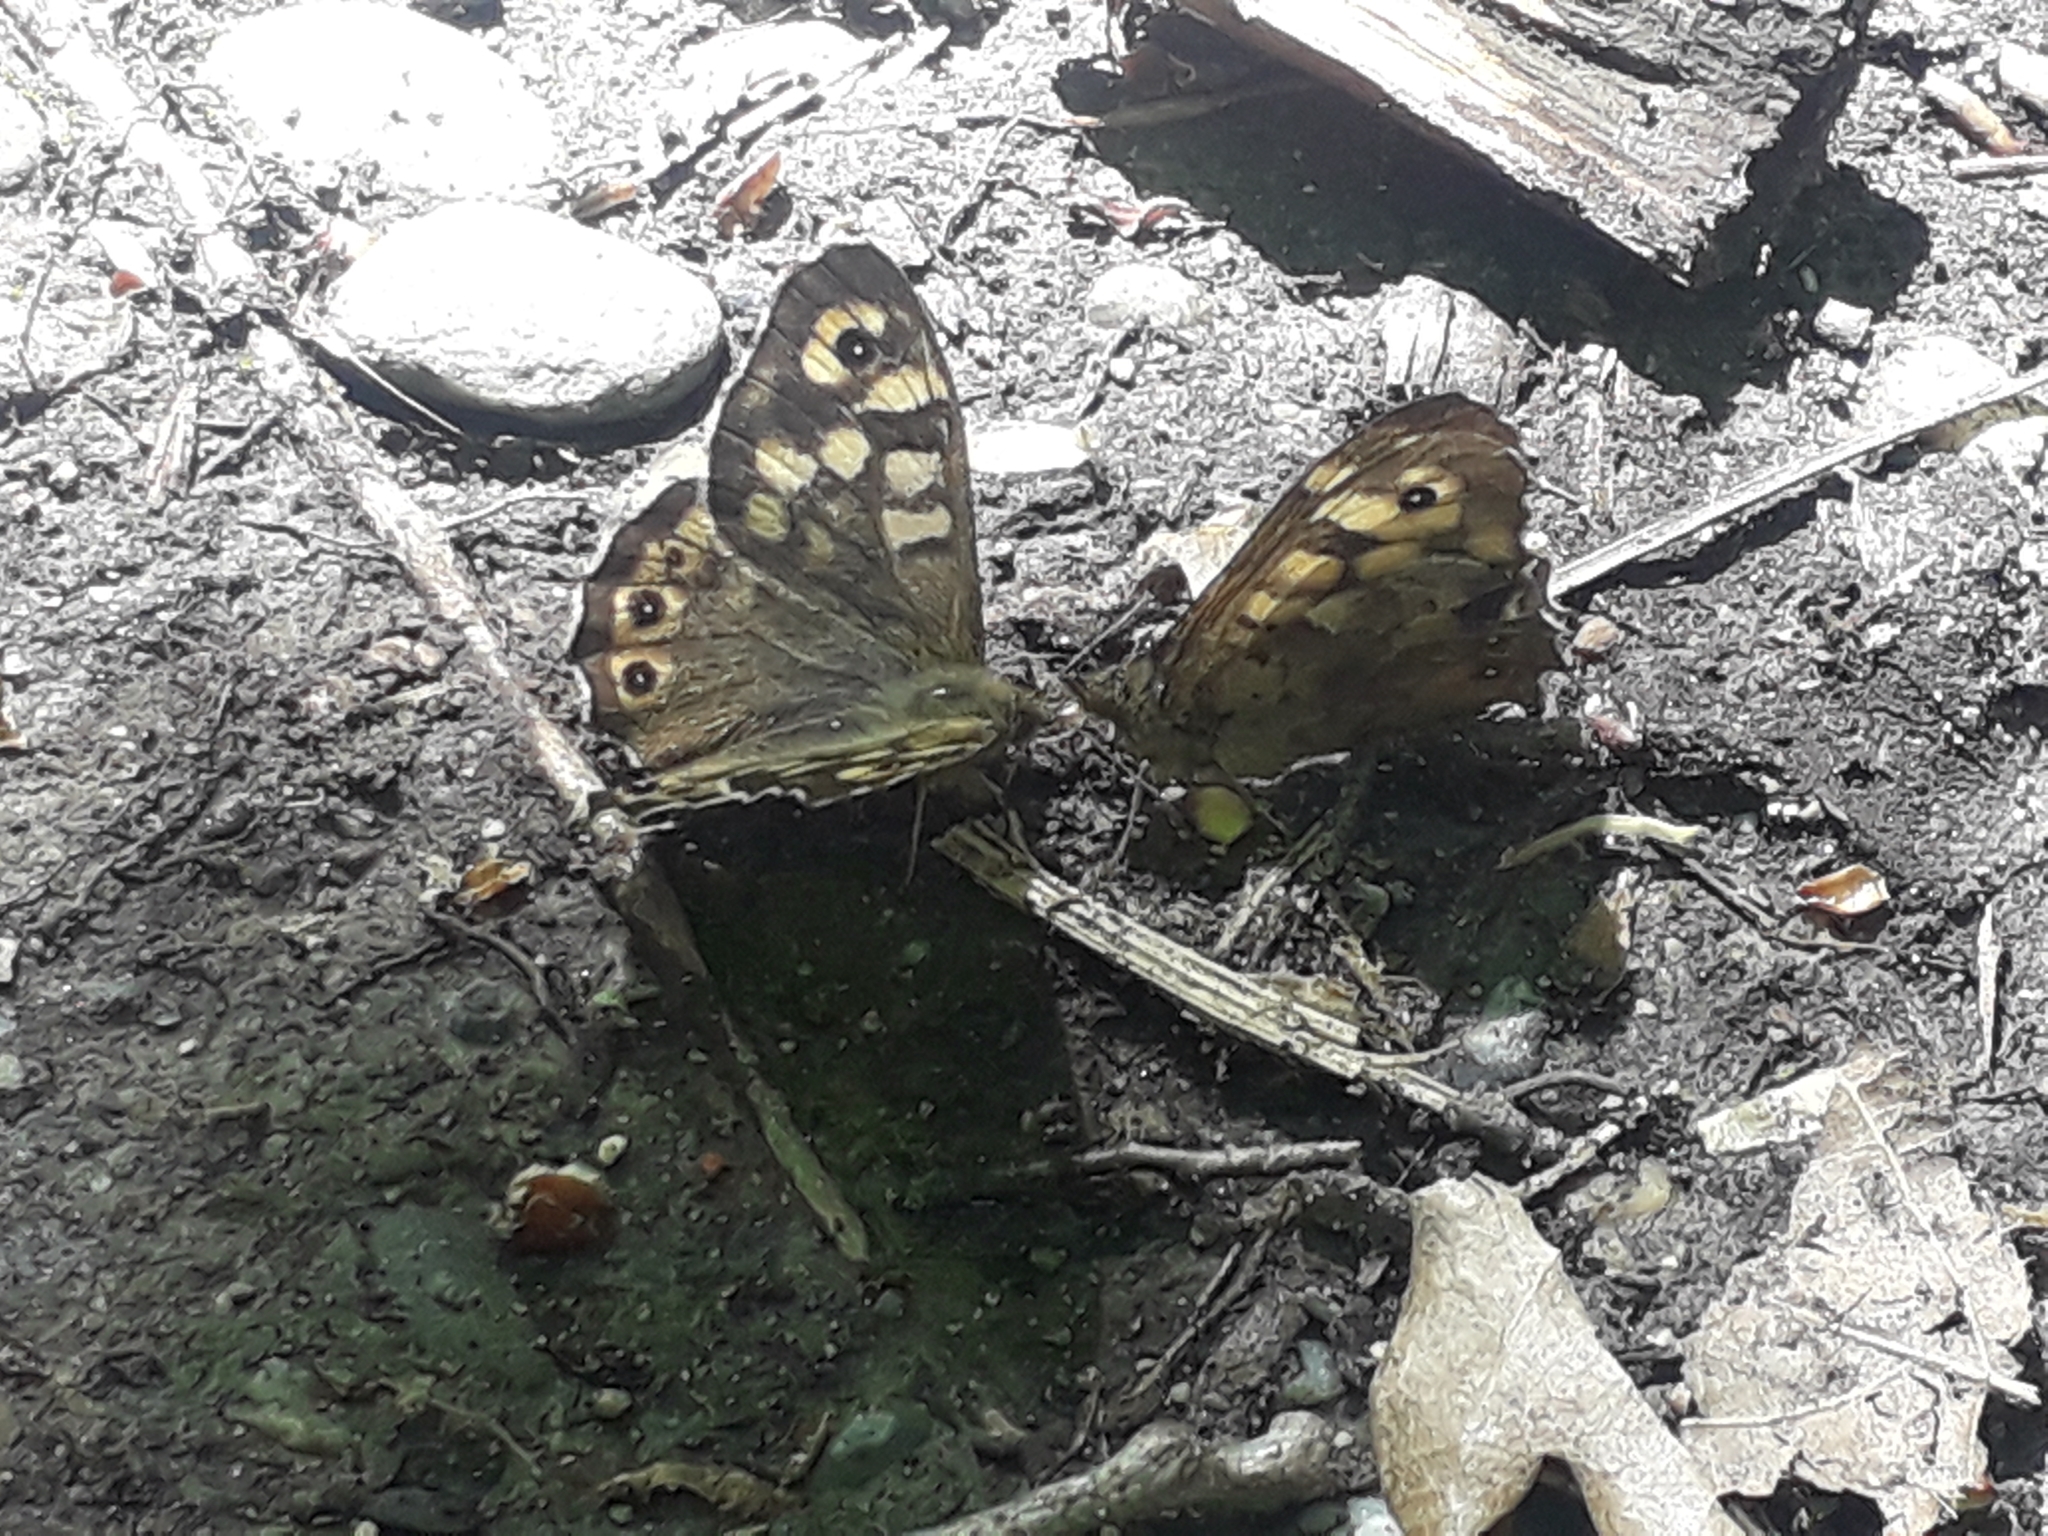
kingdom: Animalia
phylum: Arthropoda
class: Insecta
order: Lepidoptera
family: Nymphalidae
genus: Pararge
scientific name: Pararge aegeria
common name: Speckled wood
